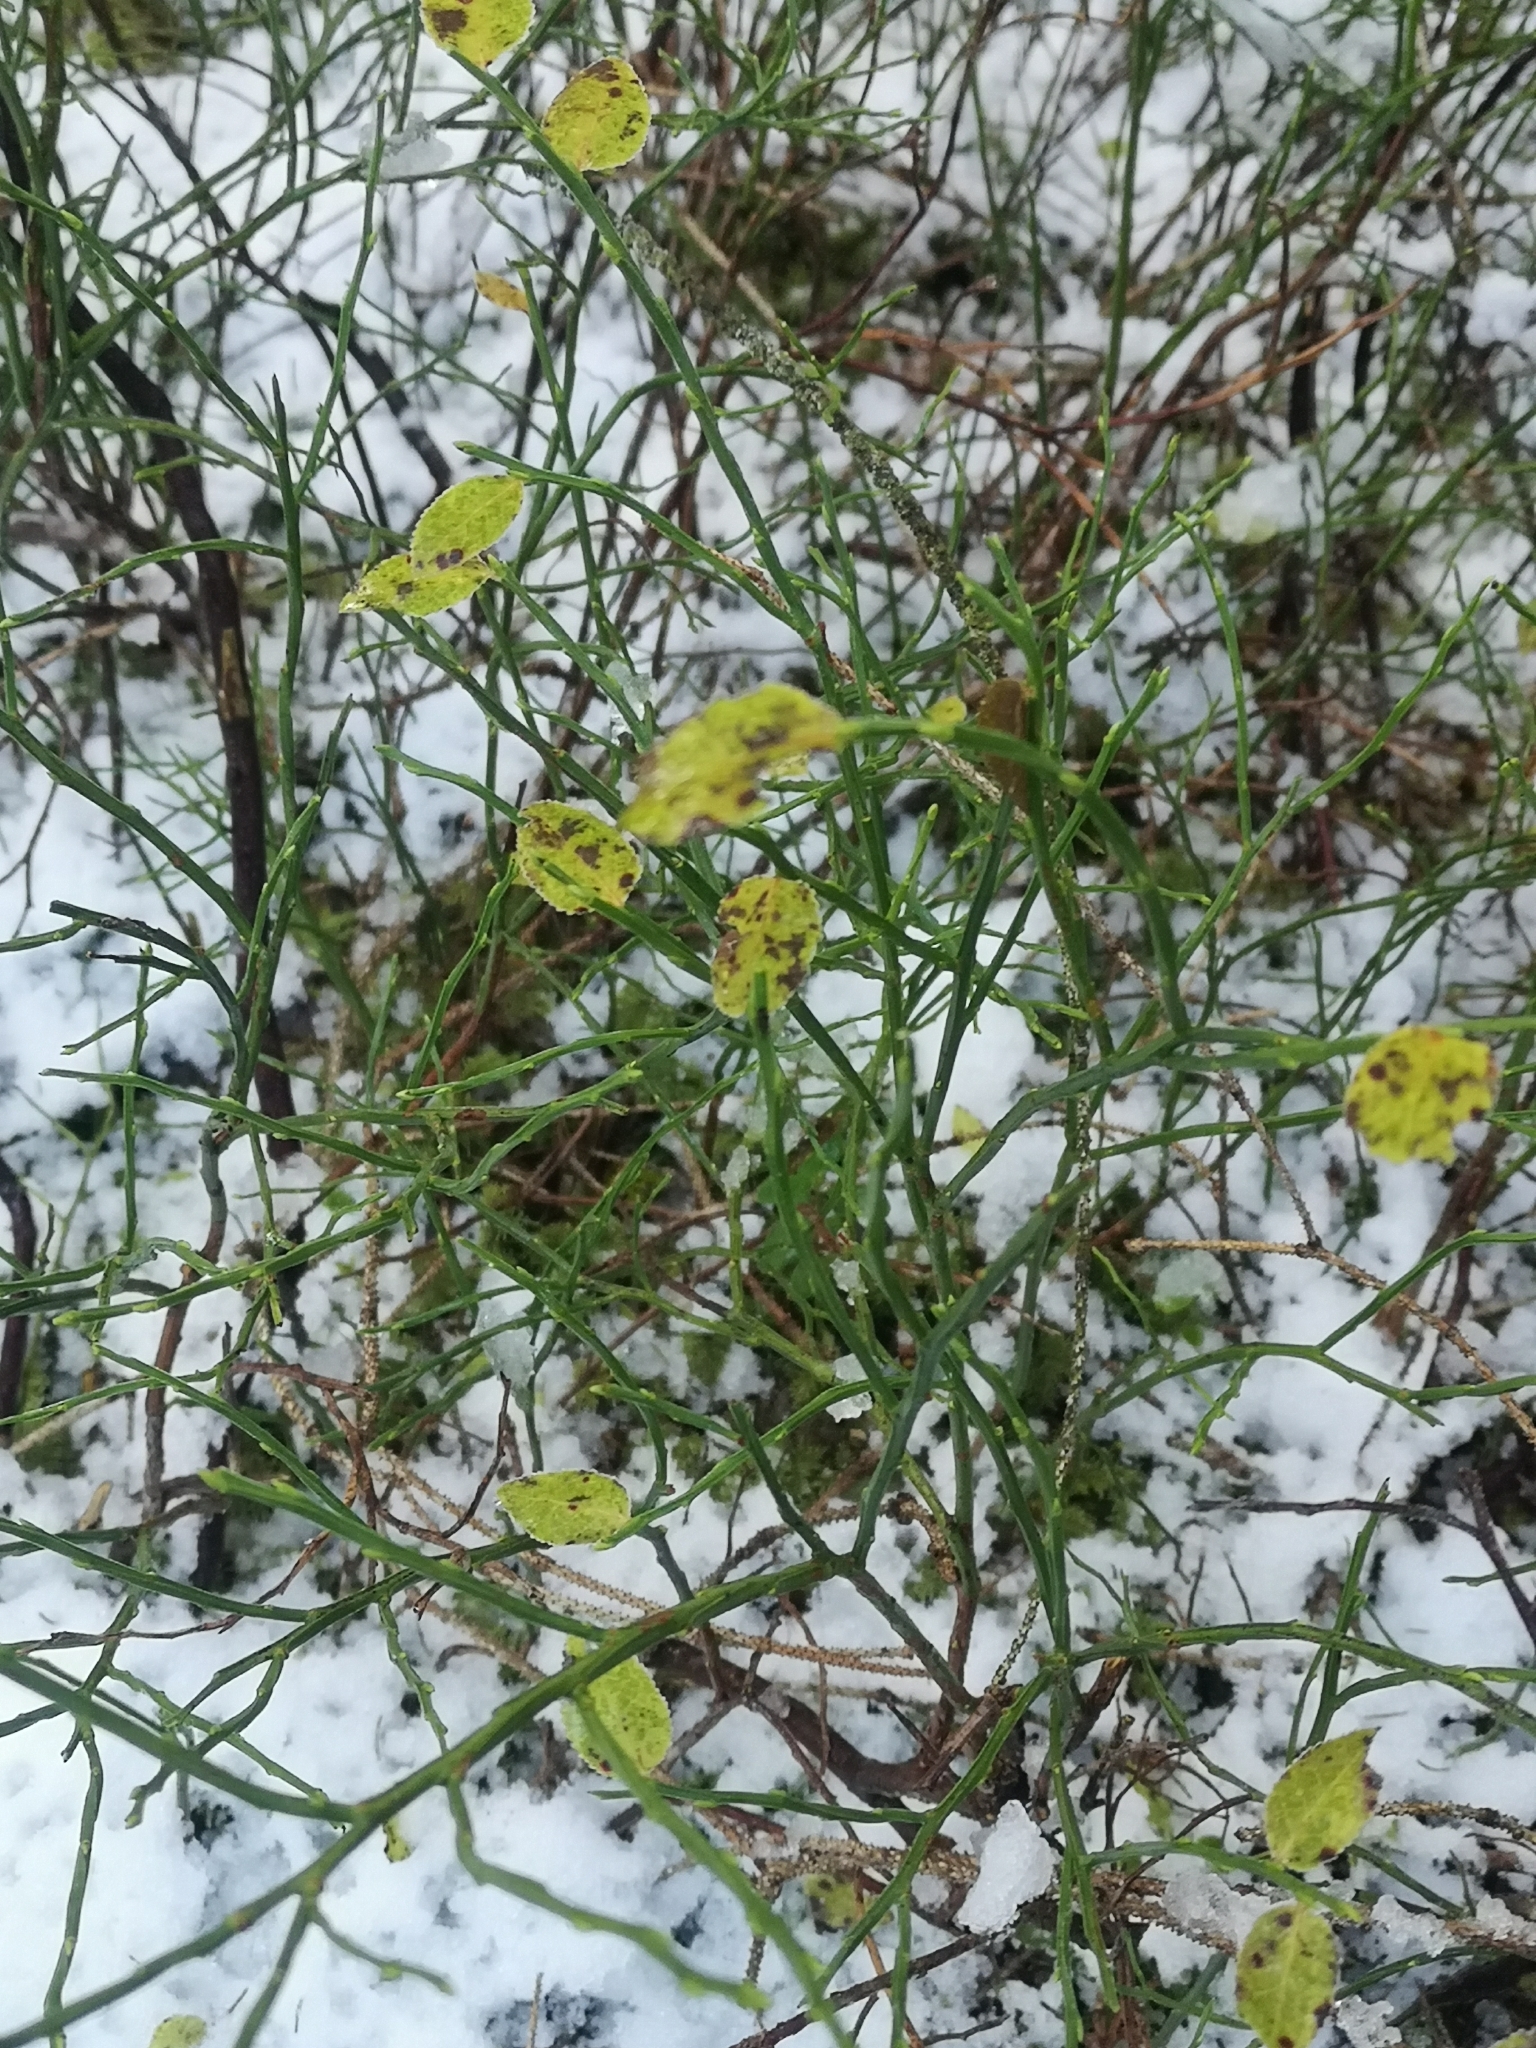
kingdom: Plantae
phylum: Tracheophyta
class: Magnoliopsida
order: Ericales
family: Ericaceae
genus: Vaccinium
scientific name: Vaccinium myrtillus
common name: Bilberry
